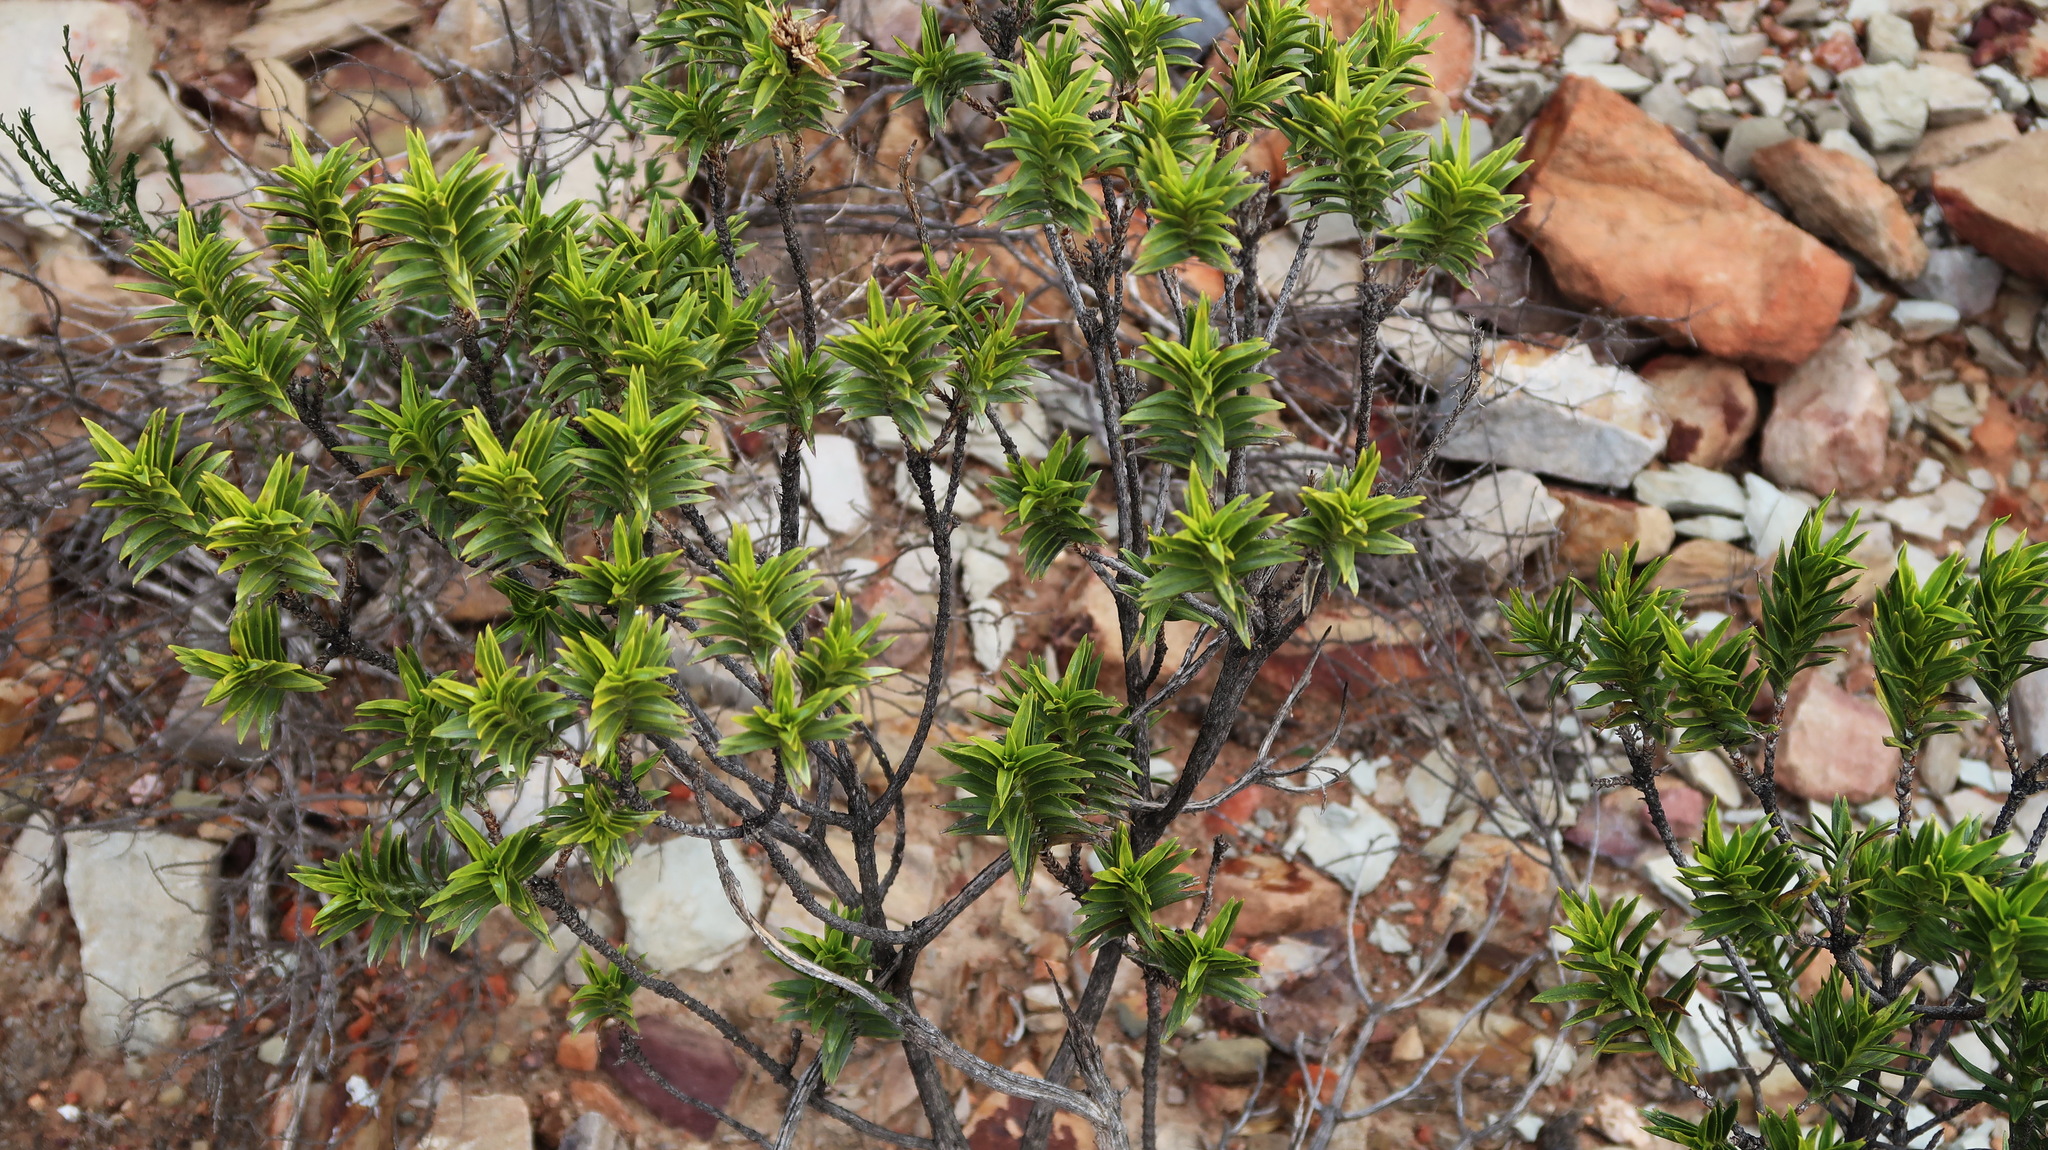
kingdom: Plantae
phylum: Tracheophyta
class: Magnoliopsida
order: Asterales
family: Asteraceae
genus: Pteronia
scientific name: Pteronia fasciculata
